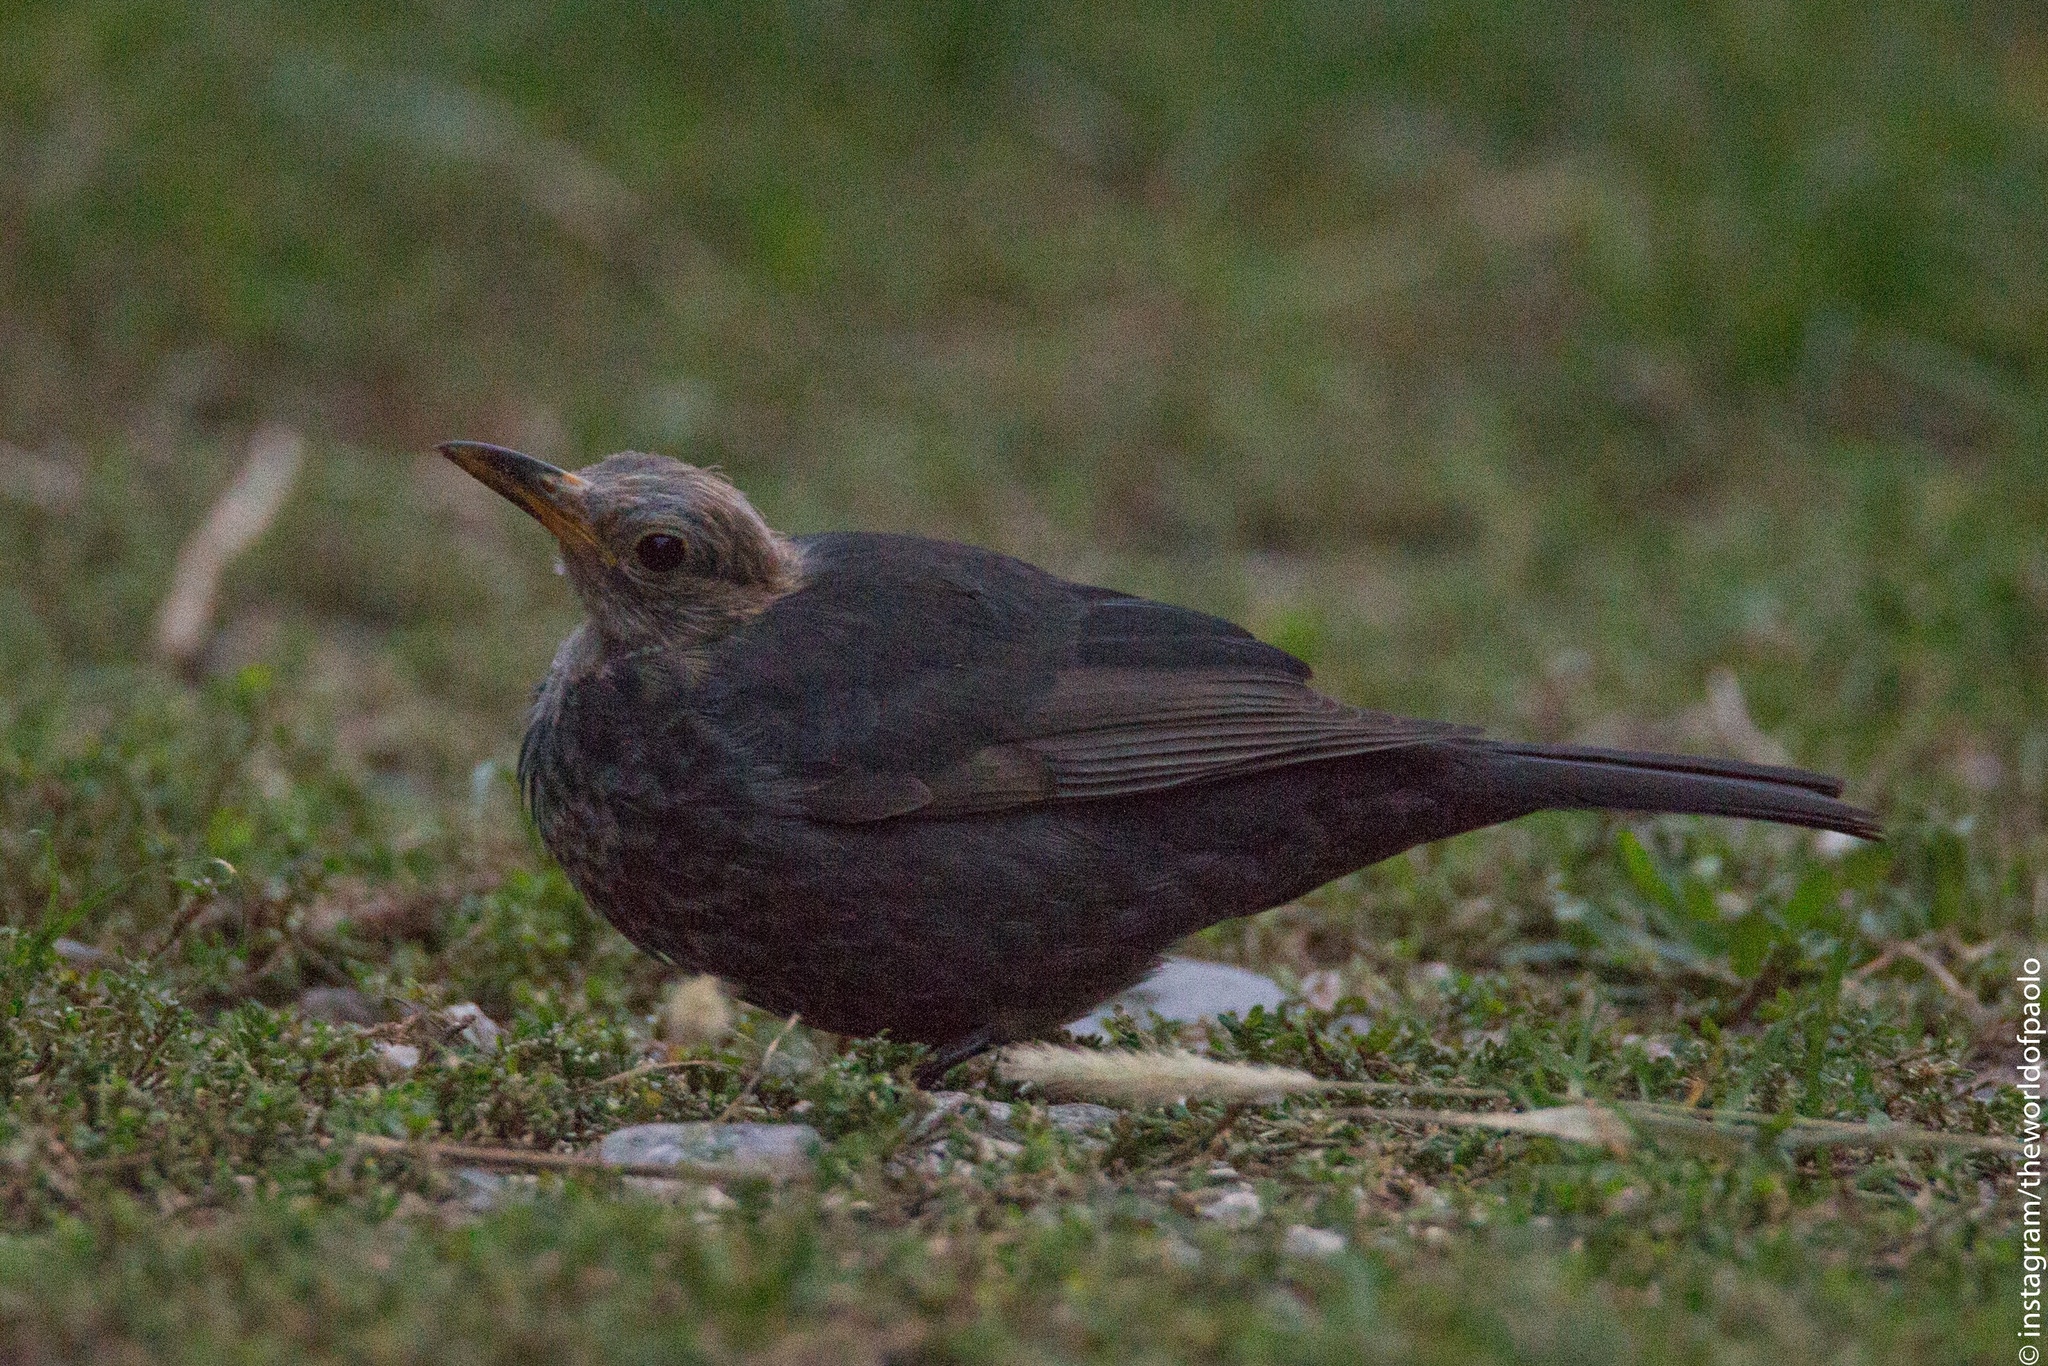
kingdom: Animalia
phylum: Chordata
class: Aves
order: Passeriformes
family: Turdidae
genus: Turdus
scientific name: Turdus merula
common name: Common blackbird
